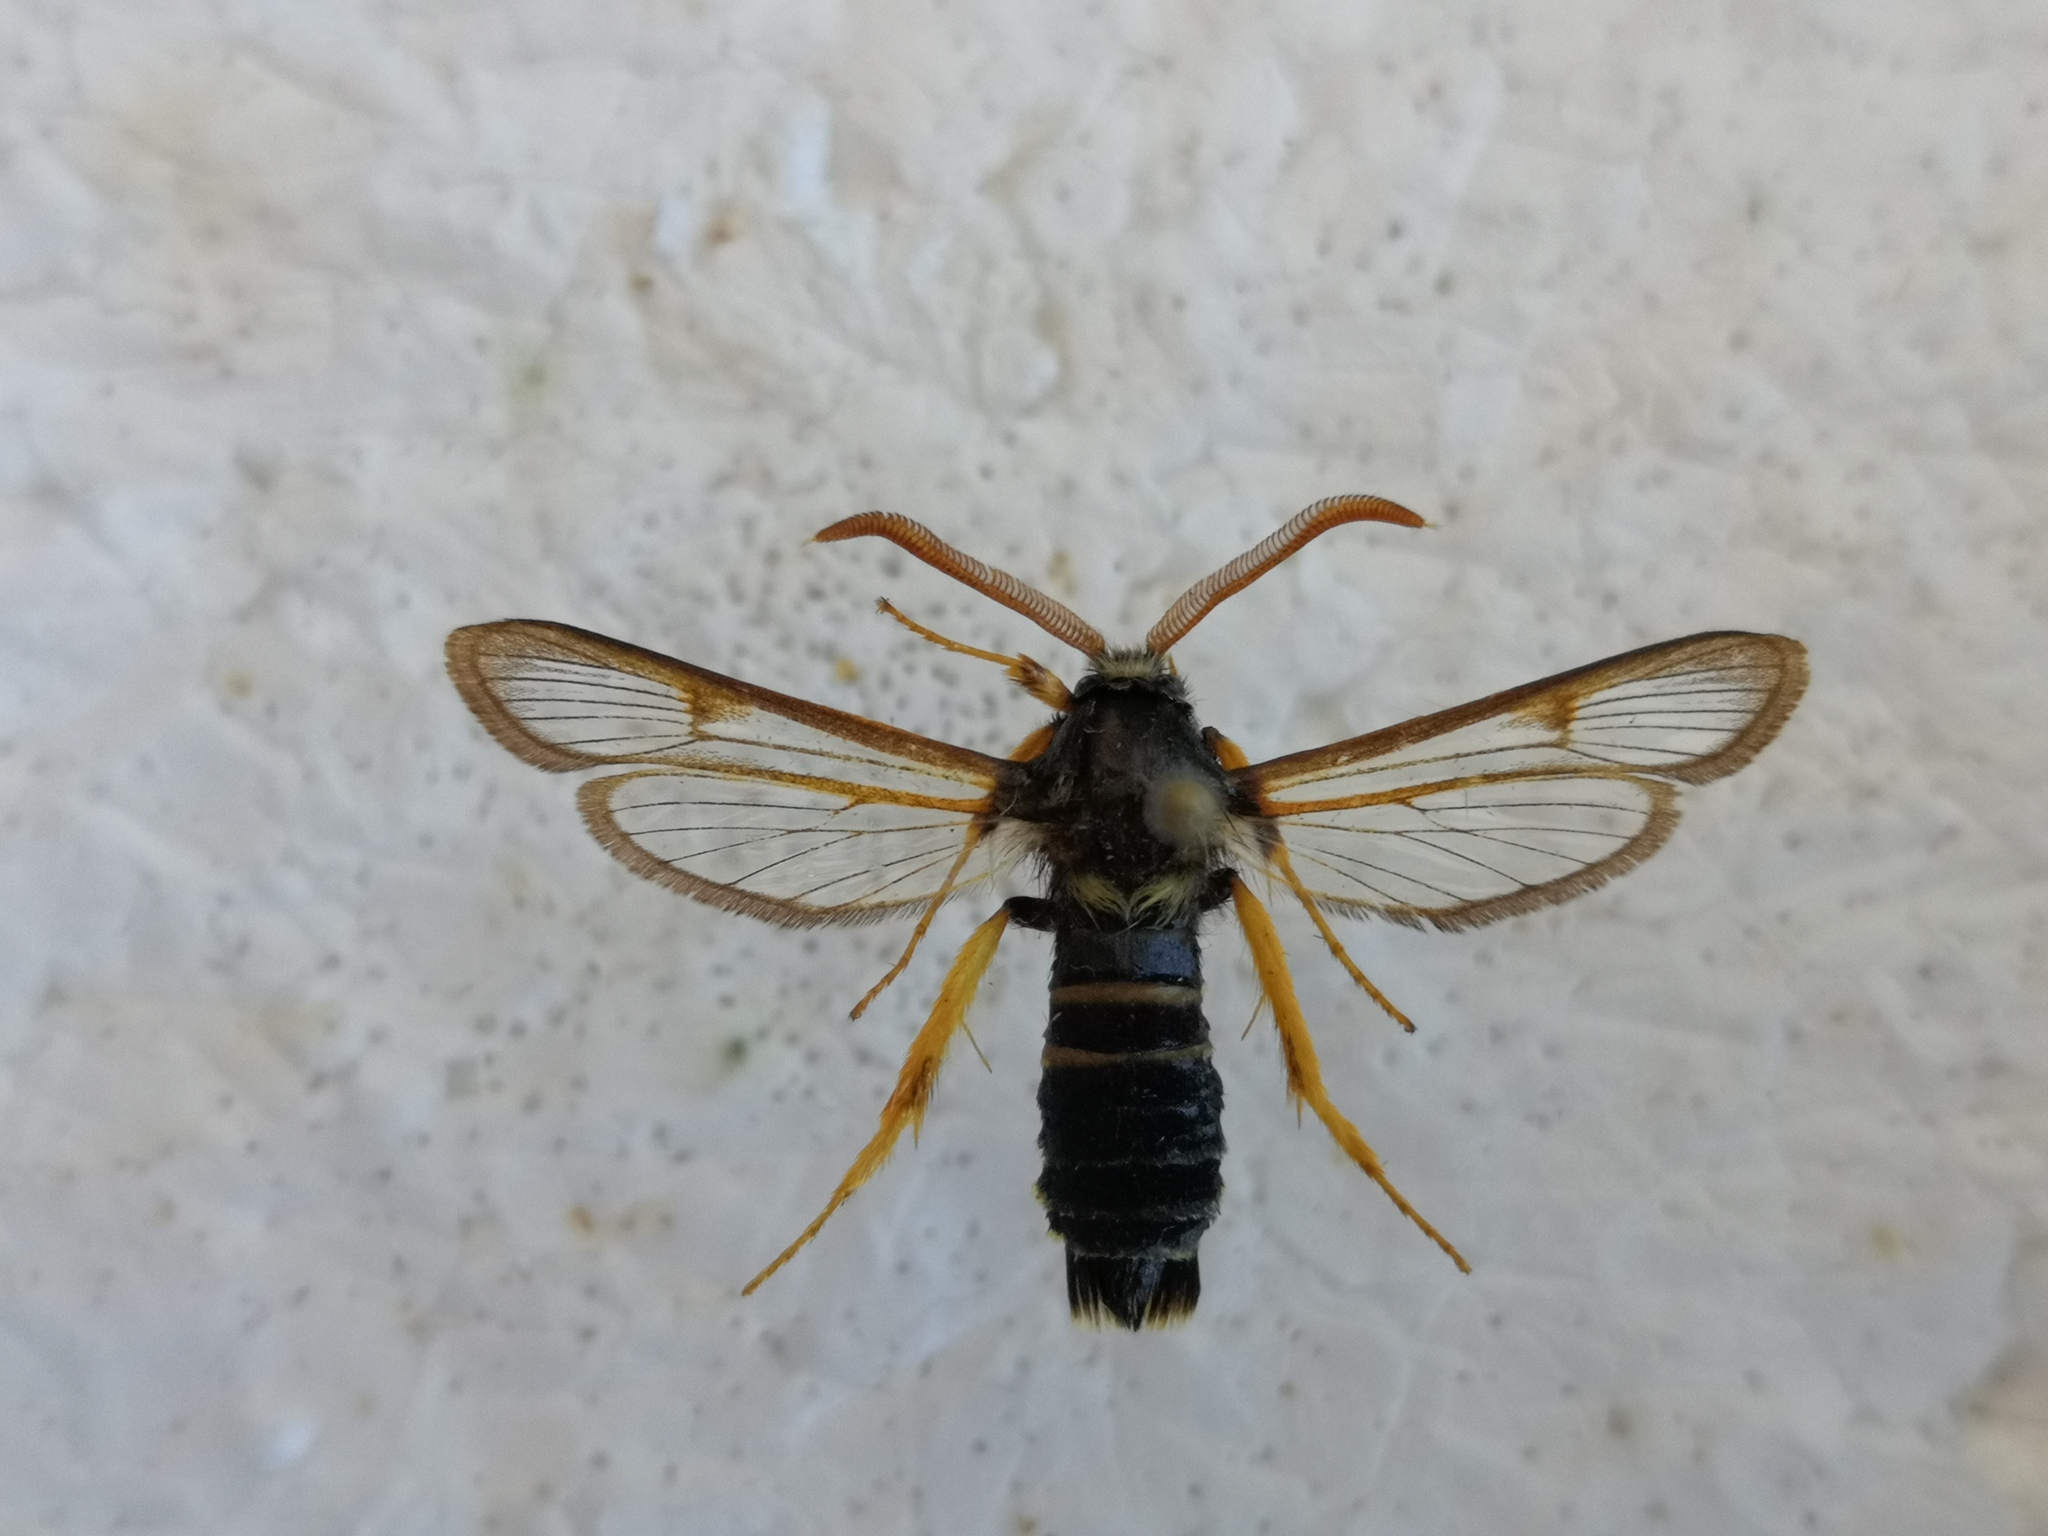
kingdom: Animalia
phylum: Arthropoda
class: Insecta
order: Lepidoptera
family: Sesiidae
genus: Eusphecia
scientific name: Eusphecia melanocephala
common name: Aspen clearwing
